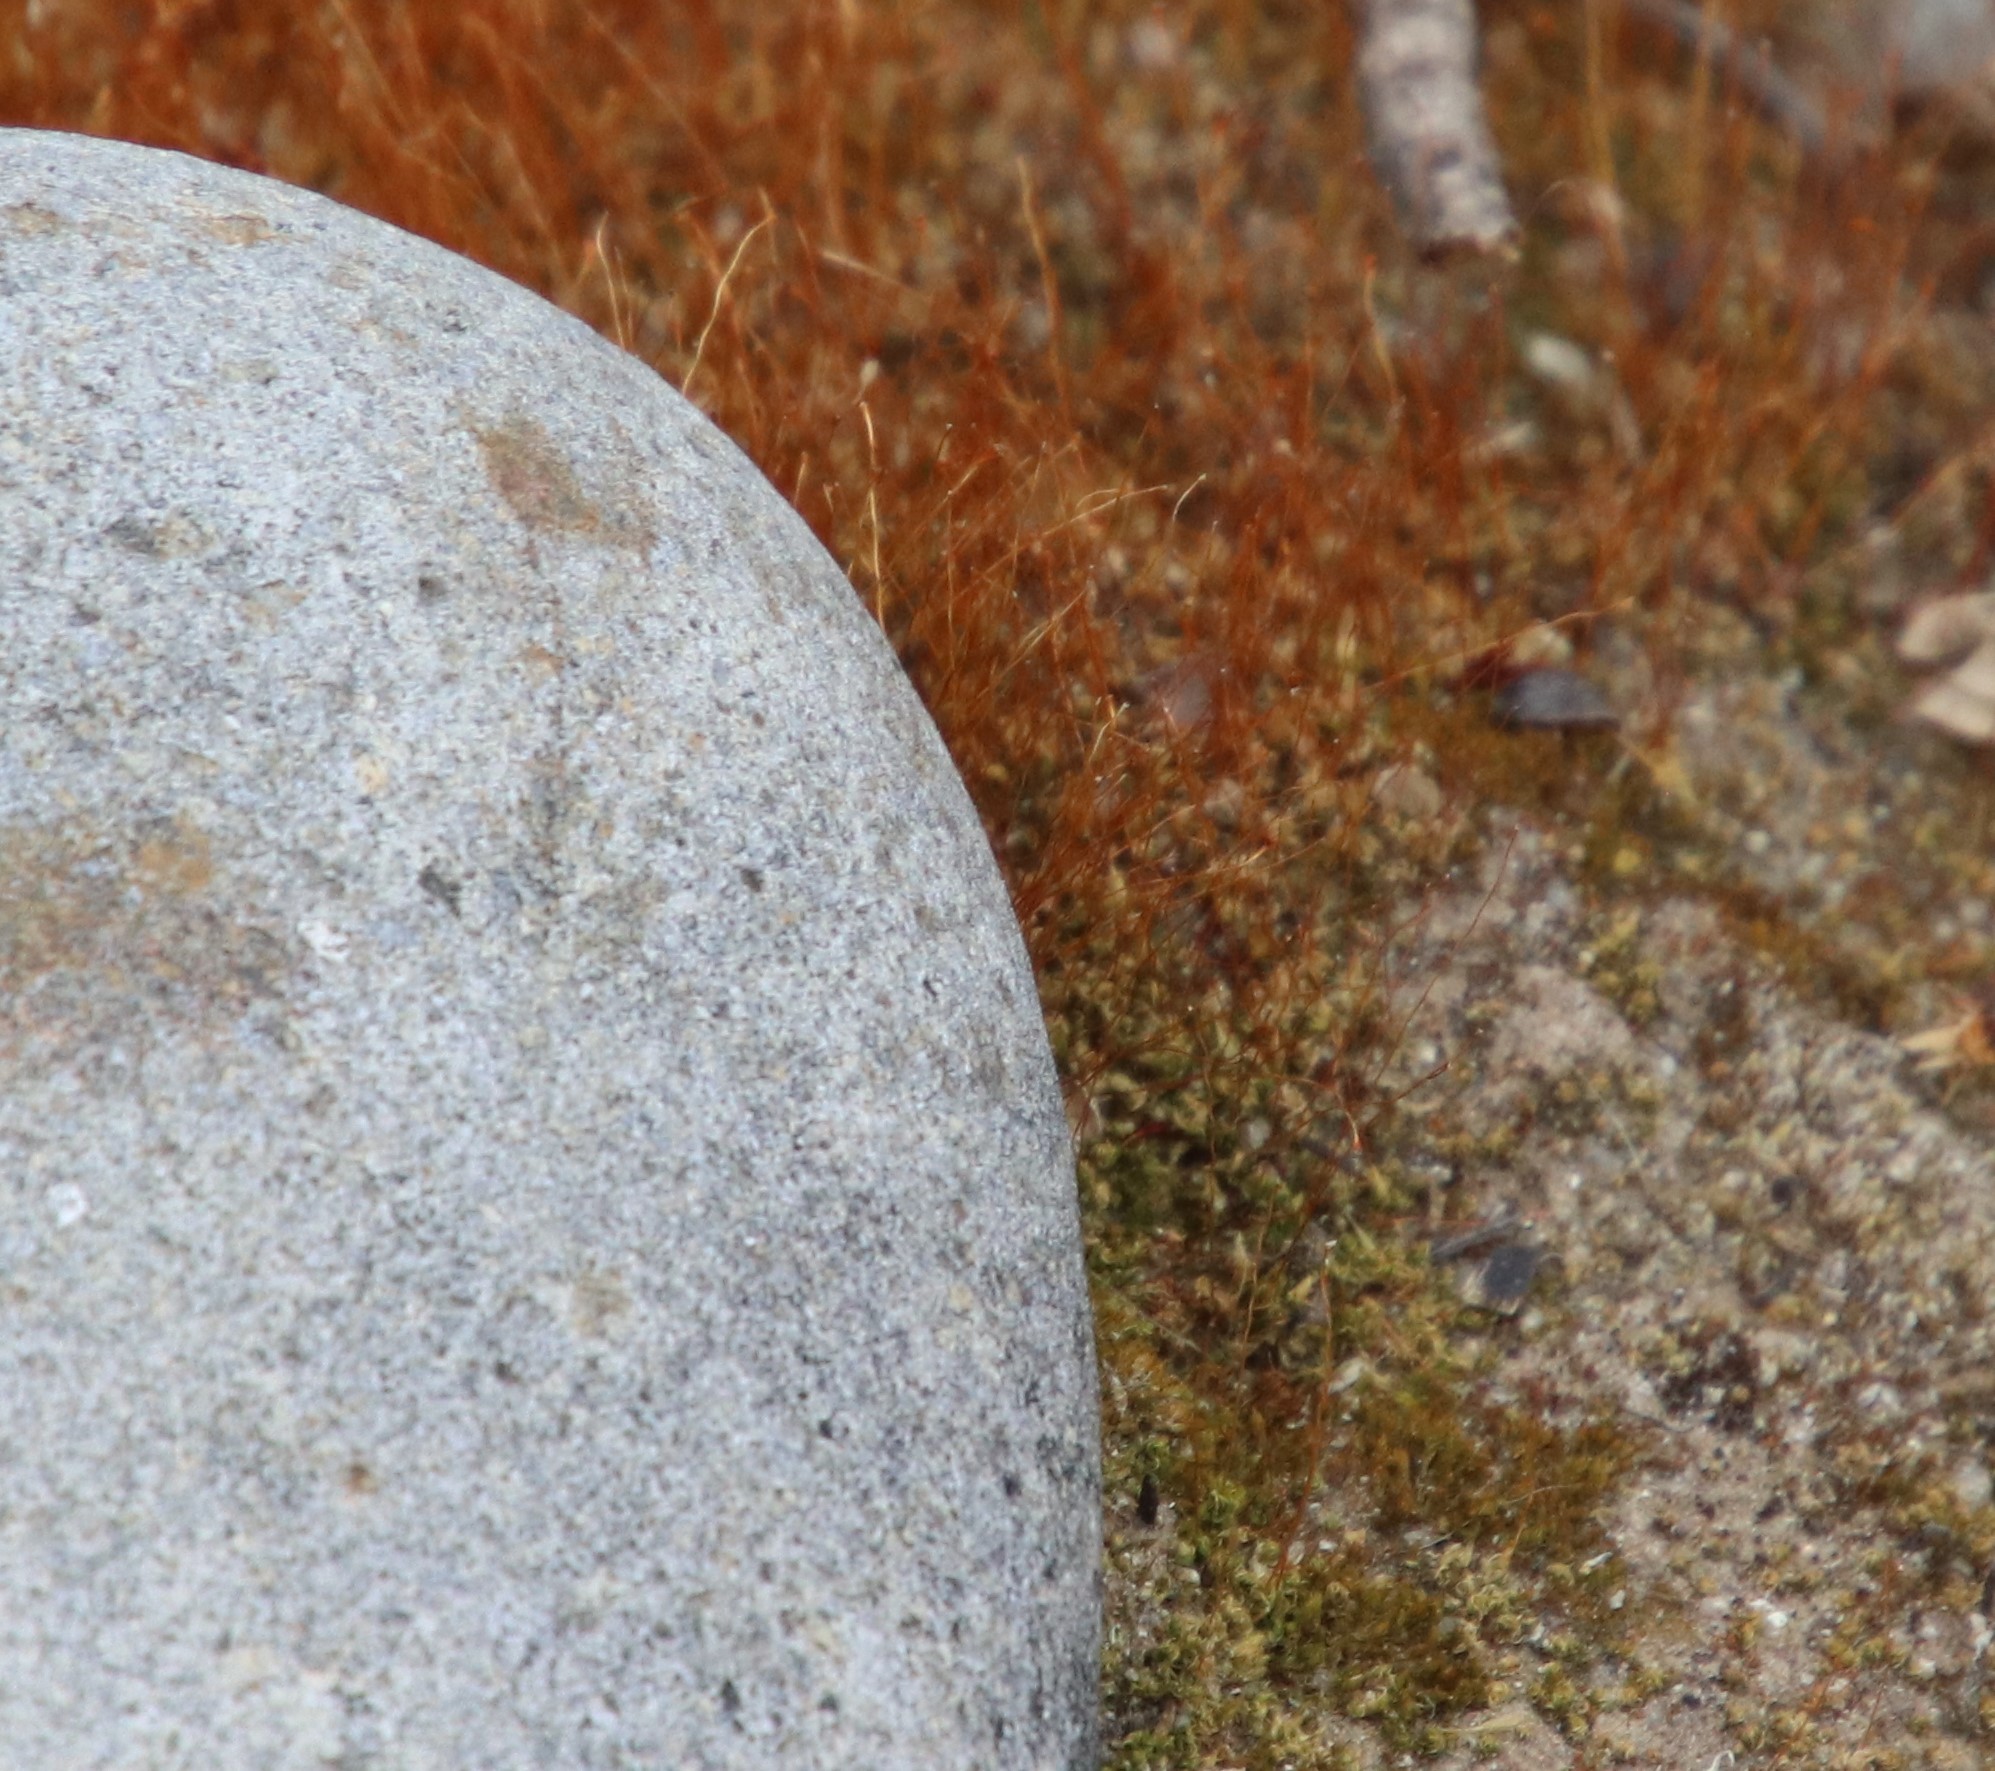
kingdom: Plantae
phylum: Bryophyta
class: Bryopsida
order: Funariales
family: Funariaceae
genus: Funaria
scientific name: Funaria hygrometrica
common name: Common cord moss
